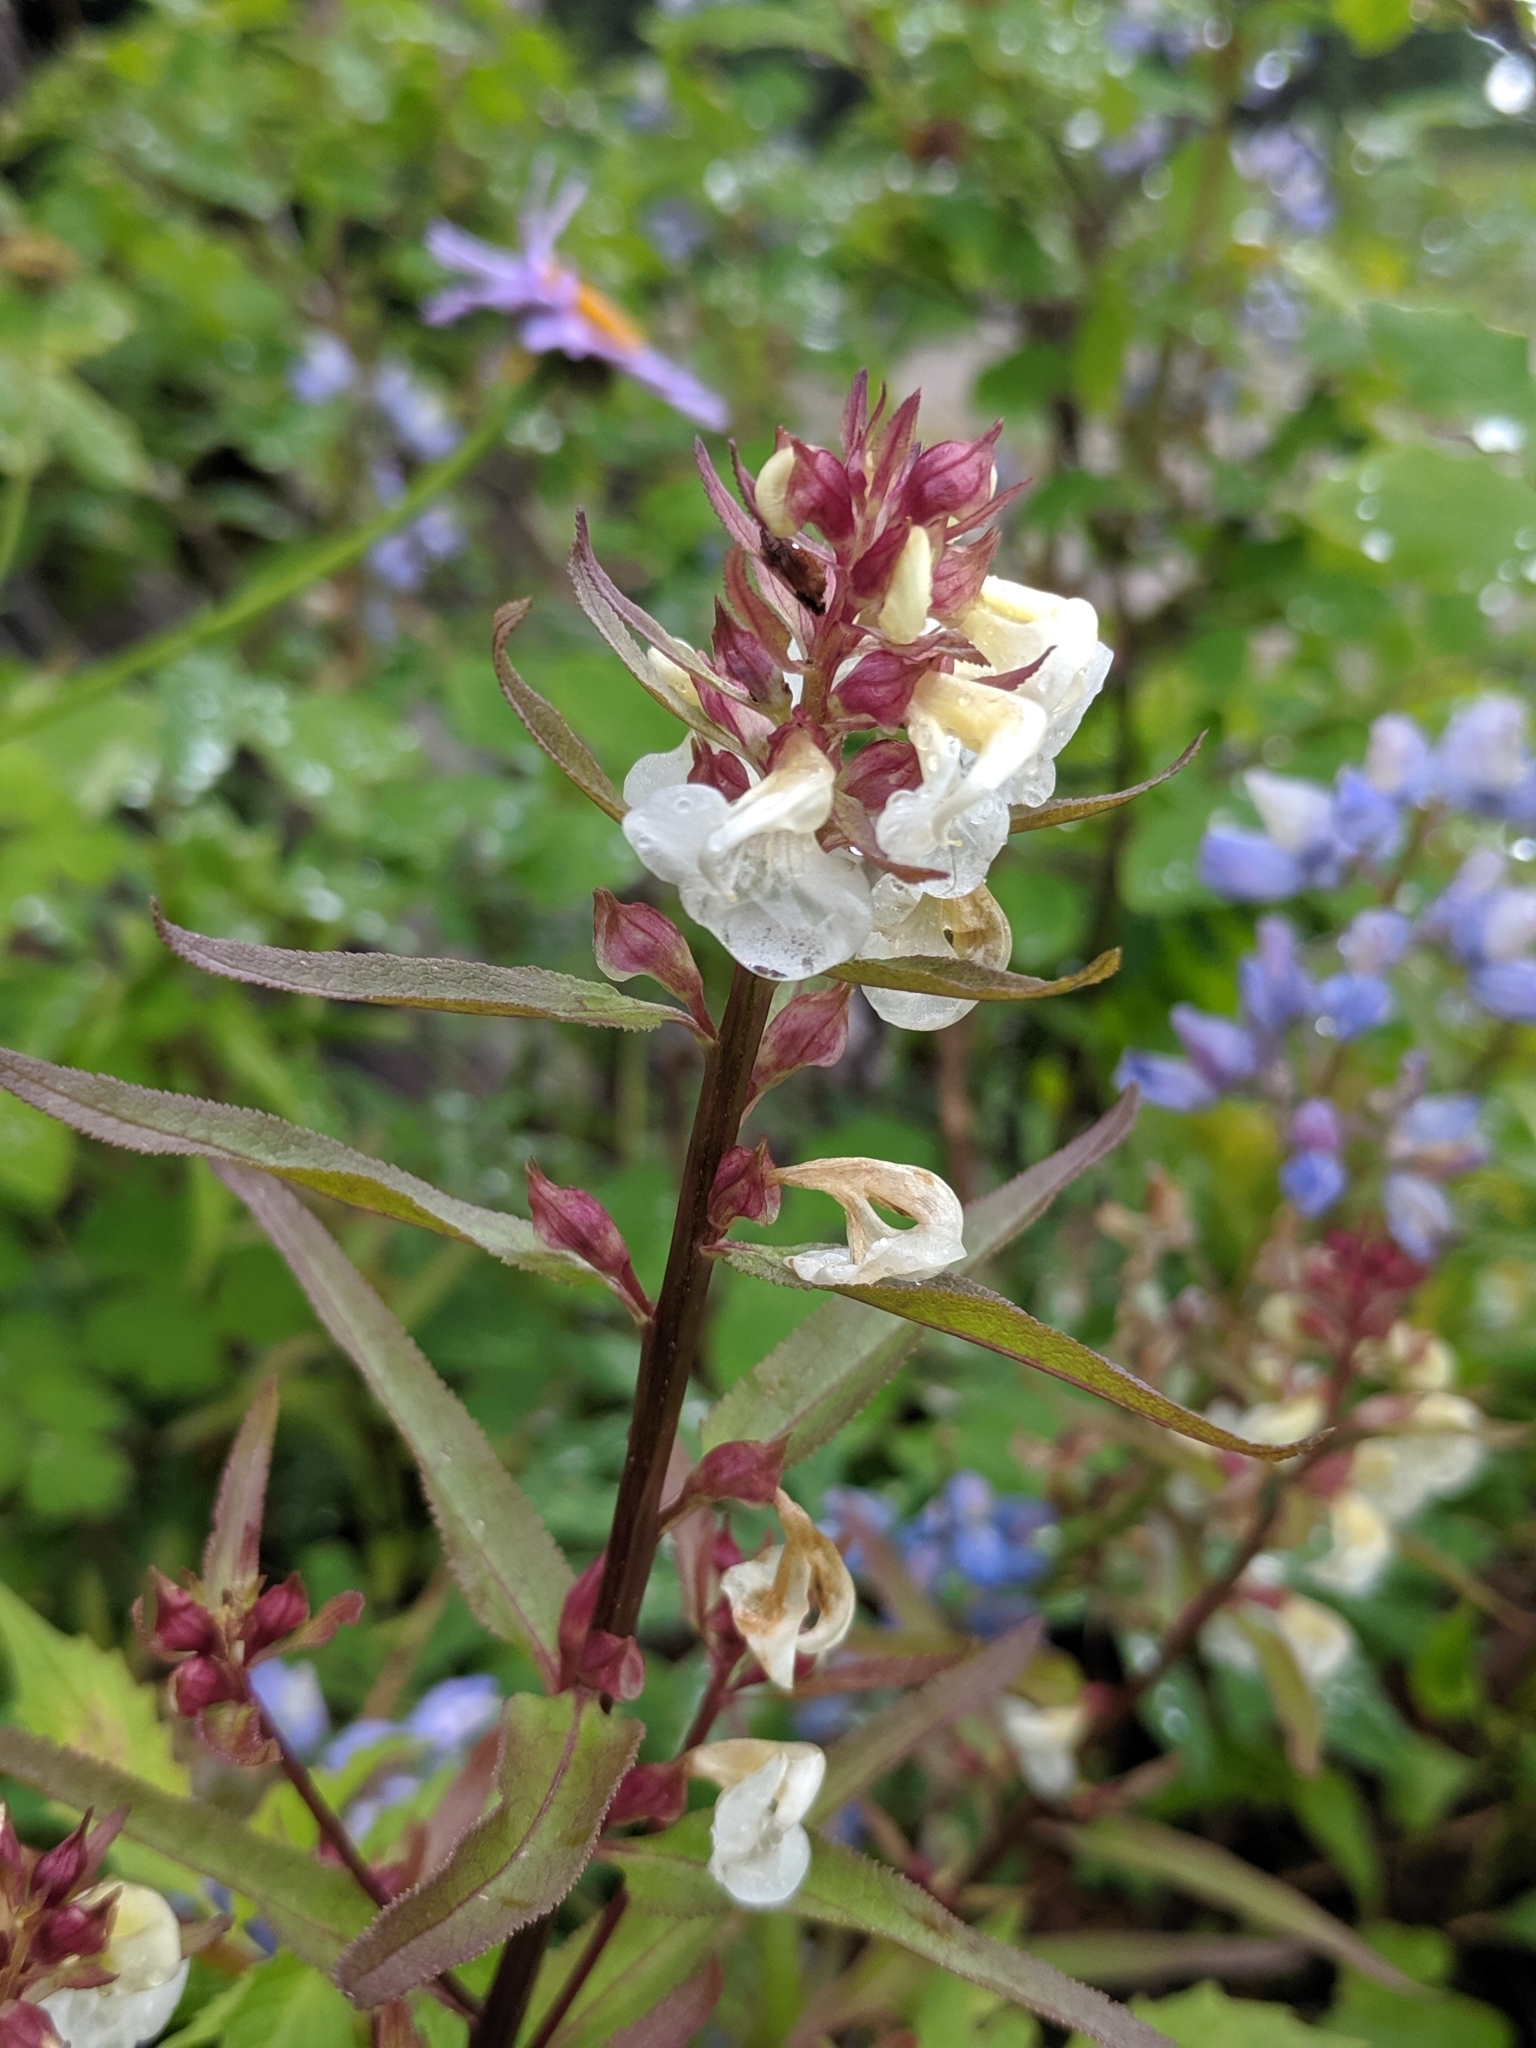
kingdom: Plantae
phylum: Tracheophyta
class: Magnoliopsida
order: Lamiales
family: Orobanchaceae
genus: Pedicularis
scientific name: Pedicularis racemosa
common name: Leafy lousewort
